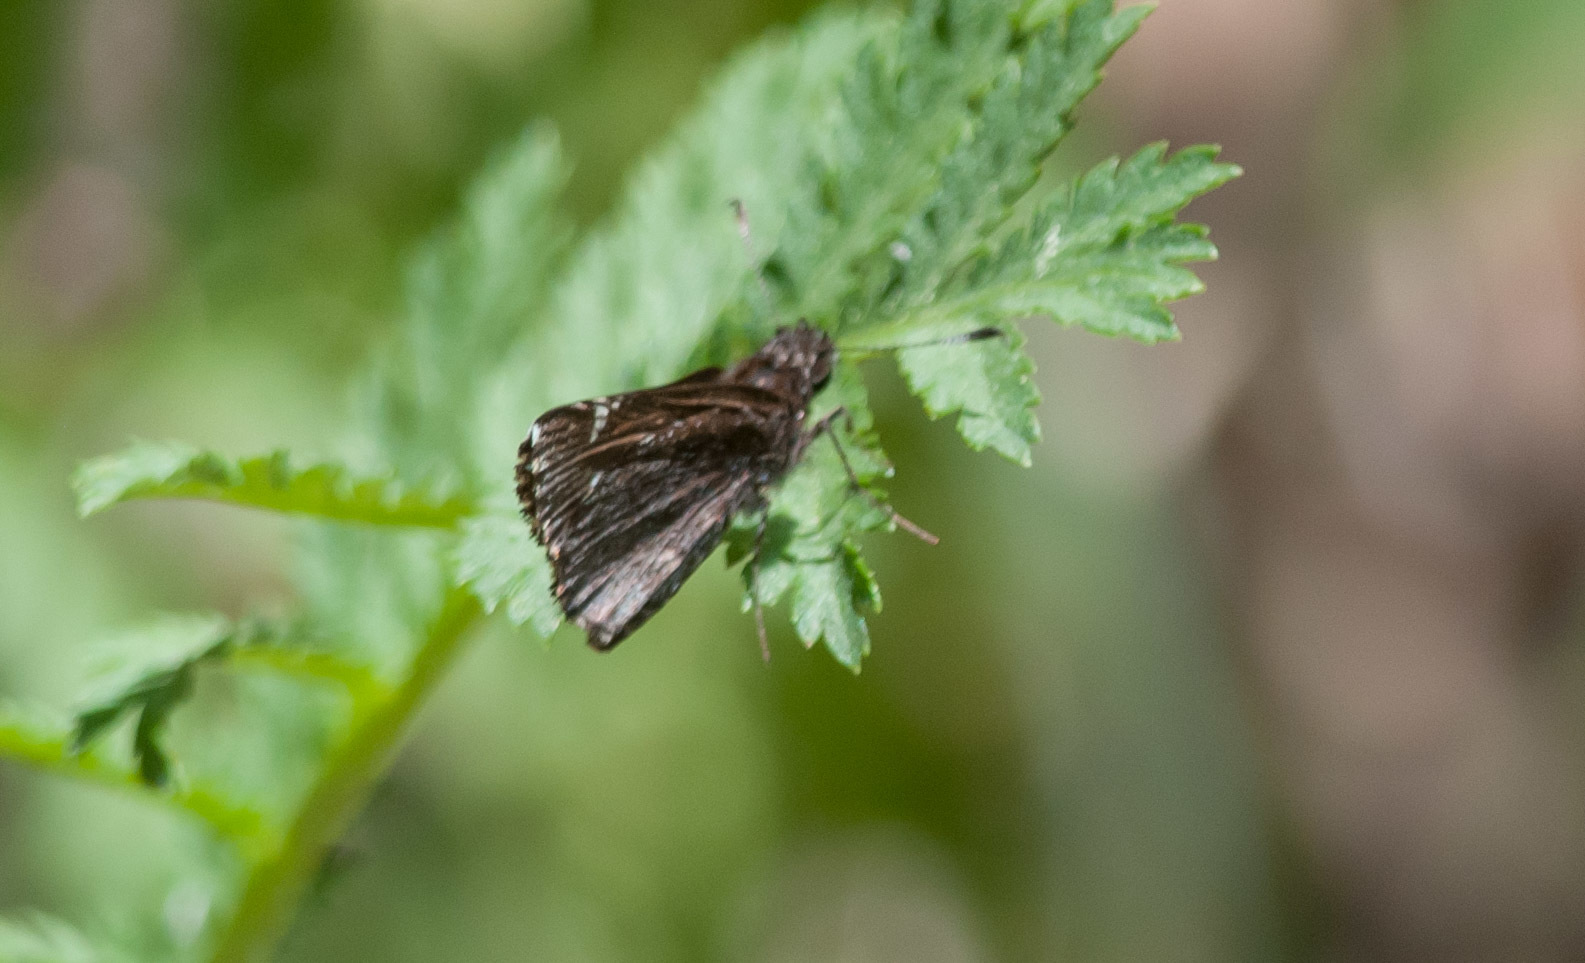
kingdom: Animalia
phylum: Arthropoda
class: Insecta
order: Lepidoptera
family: Hesperiidae
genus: Mastor
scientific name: Mastor vialis
